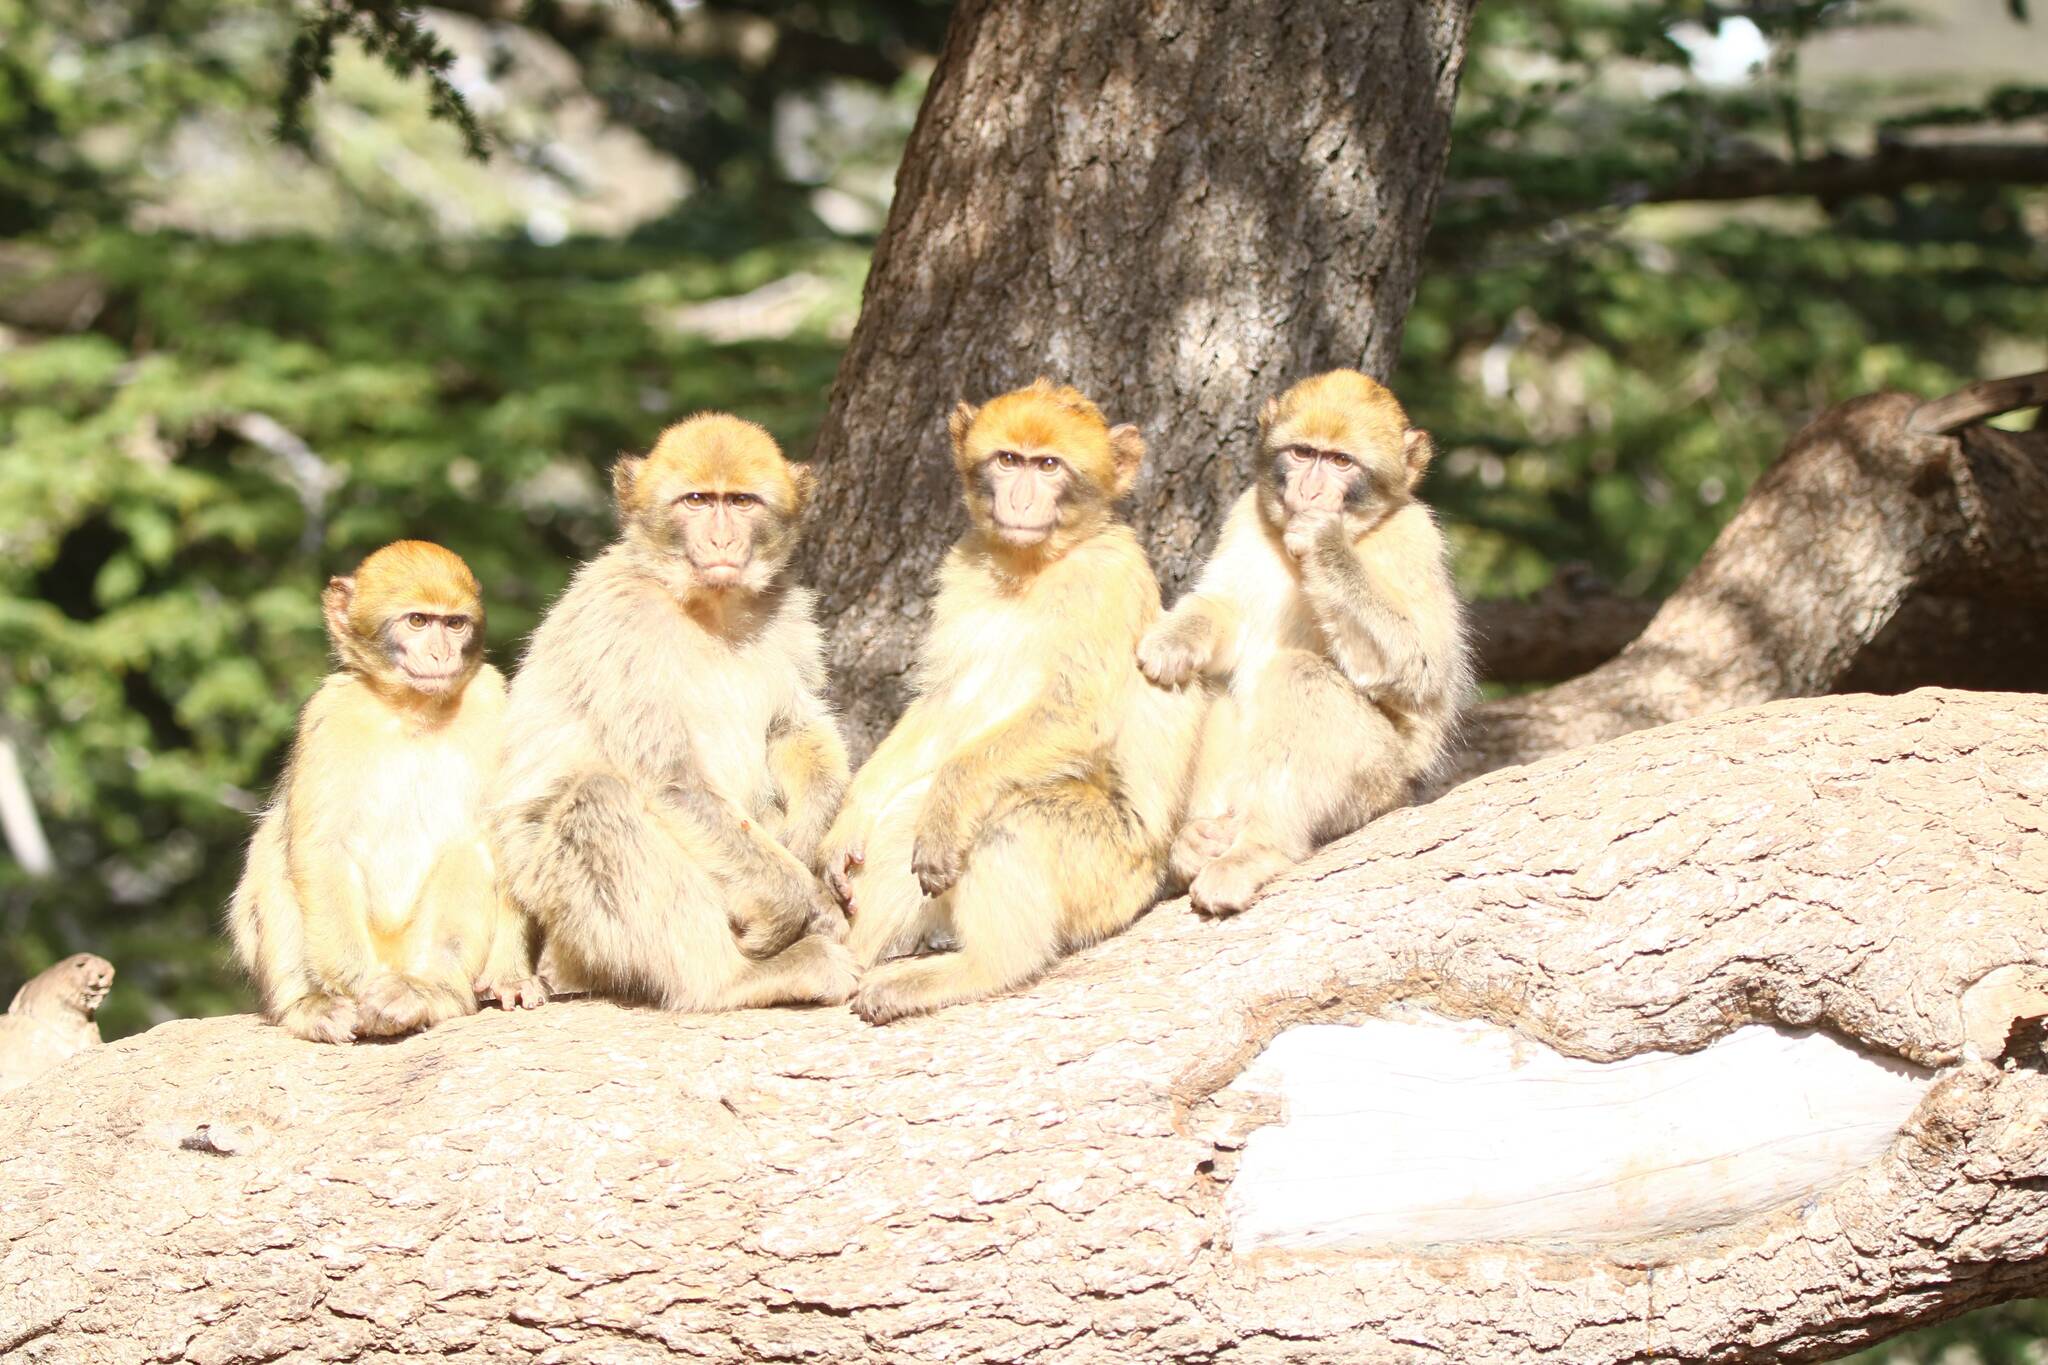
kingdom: Animalia
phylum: Chordata
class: Mammalia
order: Primates
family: Cercopithecidae
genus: Macaca
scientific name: Macaca sylvanus
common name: Barbary macaque
